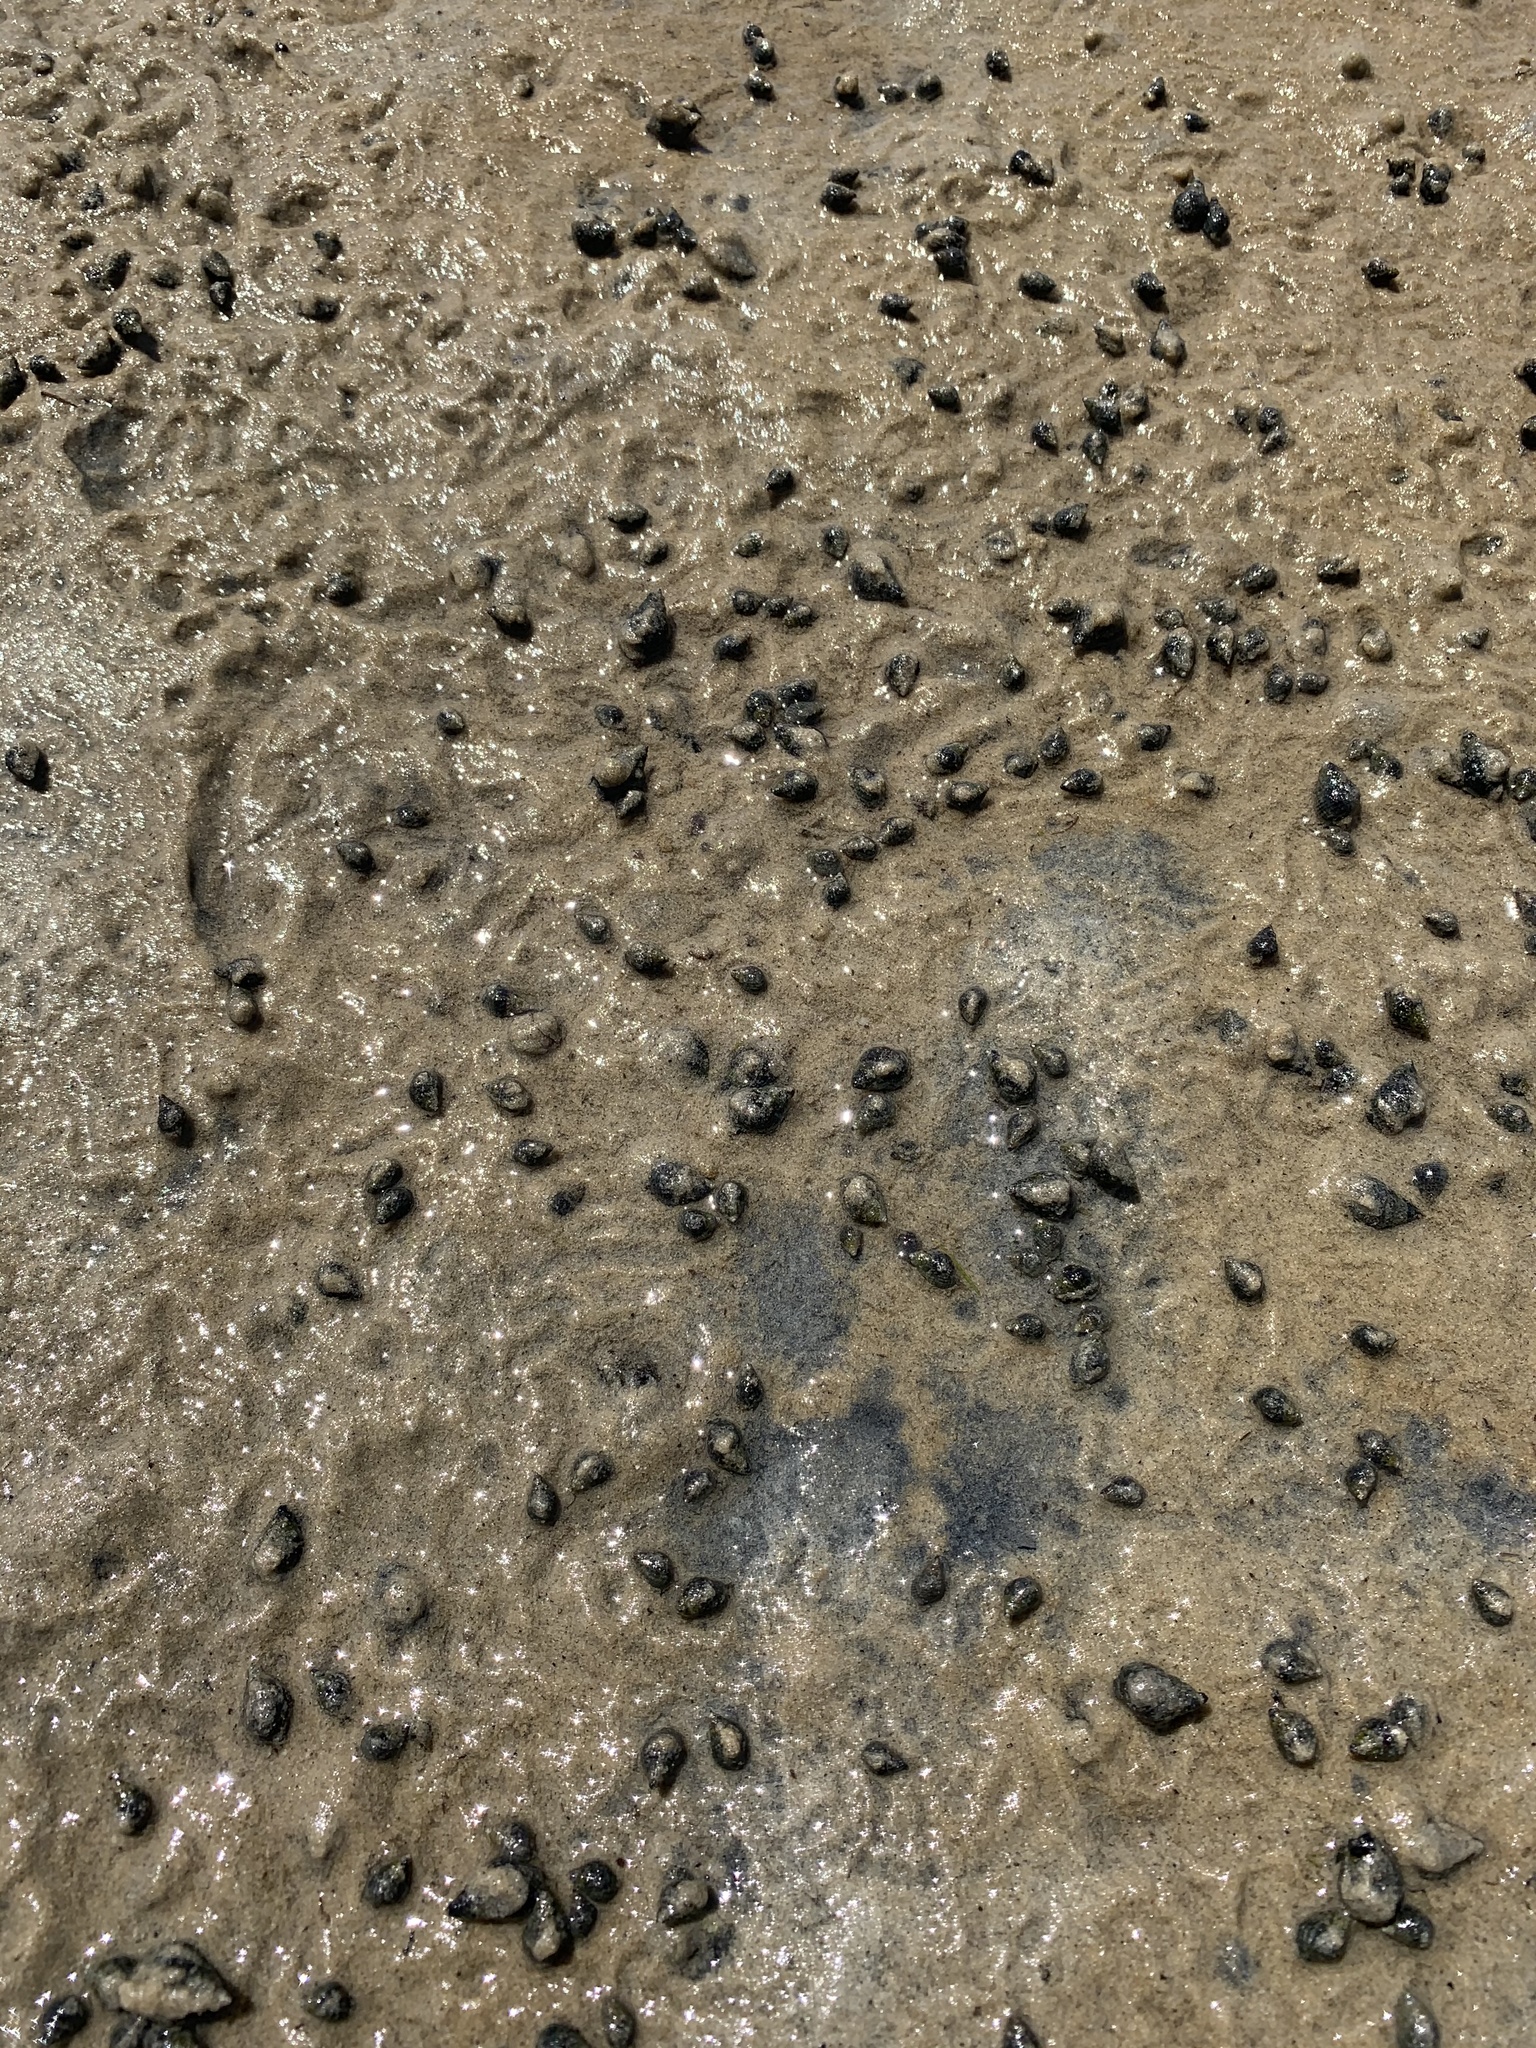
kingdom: Animalia
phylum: Mollusca
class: Gastropoda
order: Neogastropoda
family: Nassariidae
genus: Ilyanassa
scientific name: Ilyanassa obsoleta
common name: Eastern mudsnail
